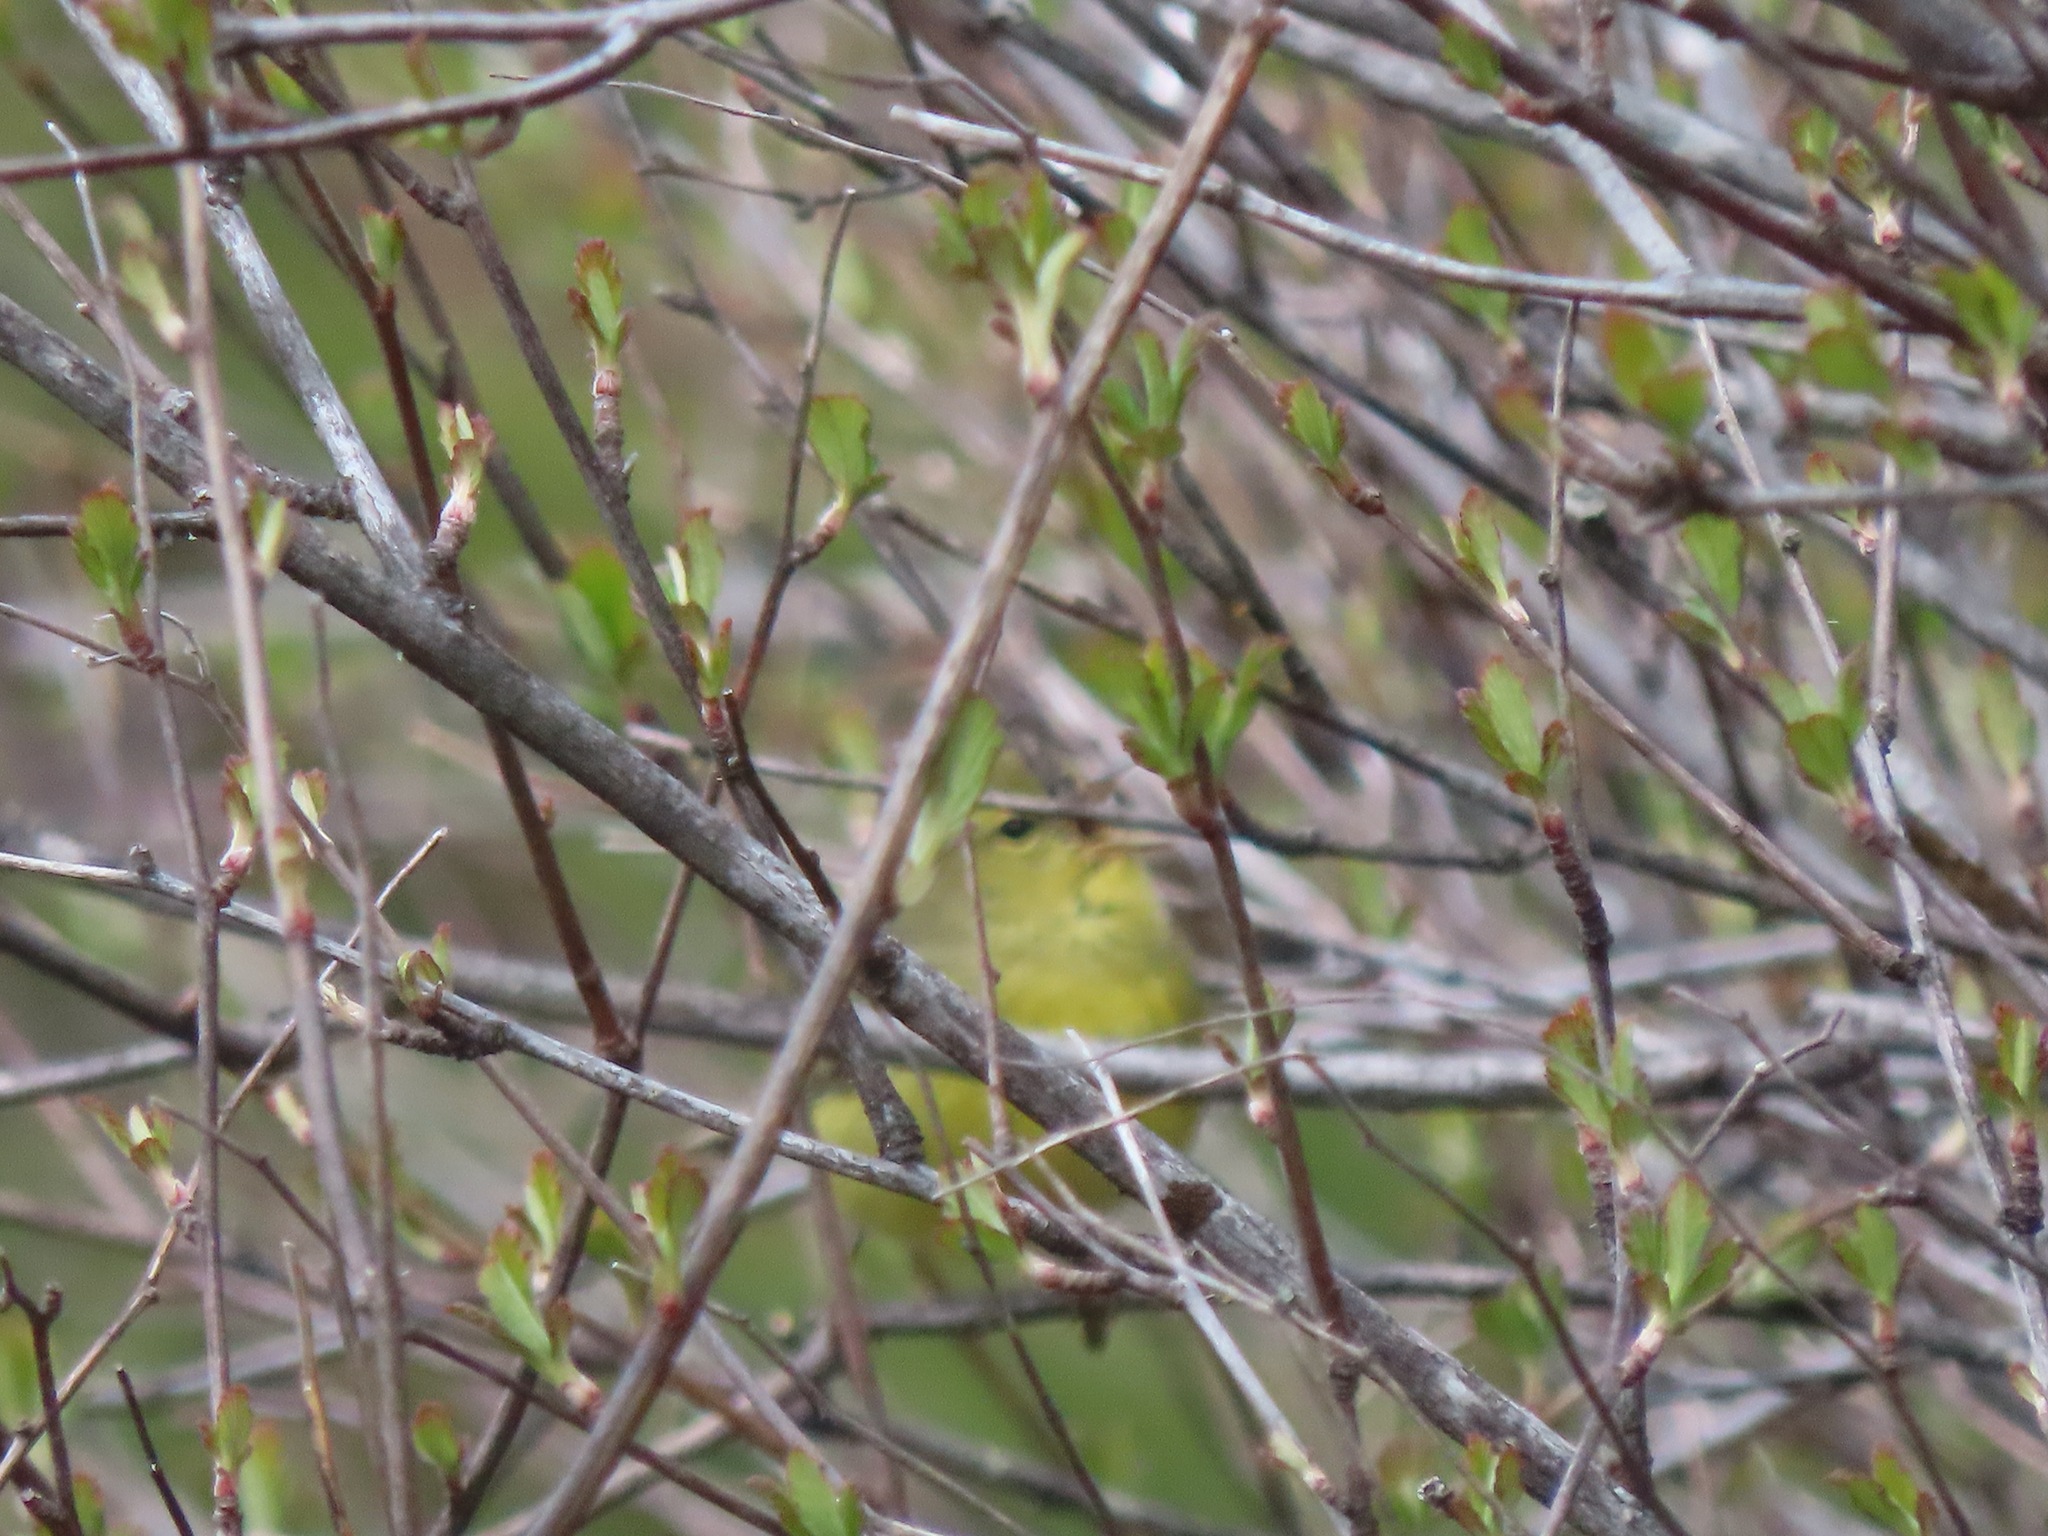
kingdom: Animalia
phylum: Chordata
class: Aves
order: Passeriformes
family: Parulidae
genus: Leiothlypis
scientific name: Leiothlypis celata
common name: Orange-crowned warbler
